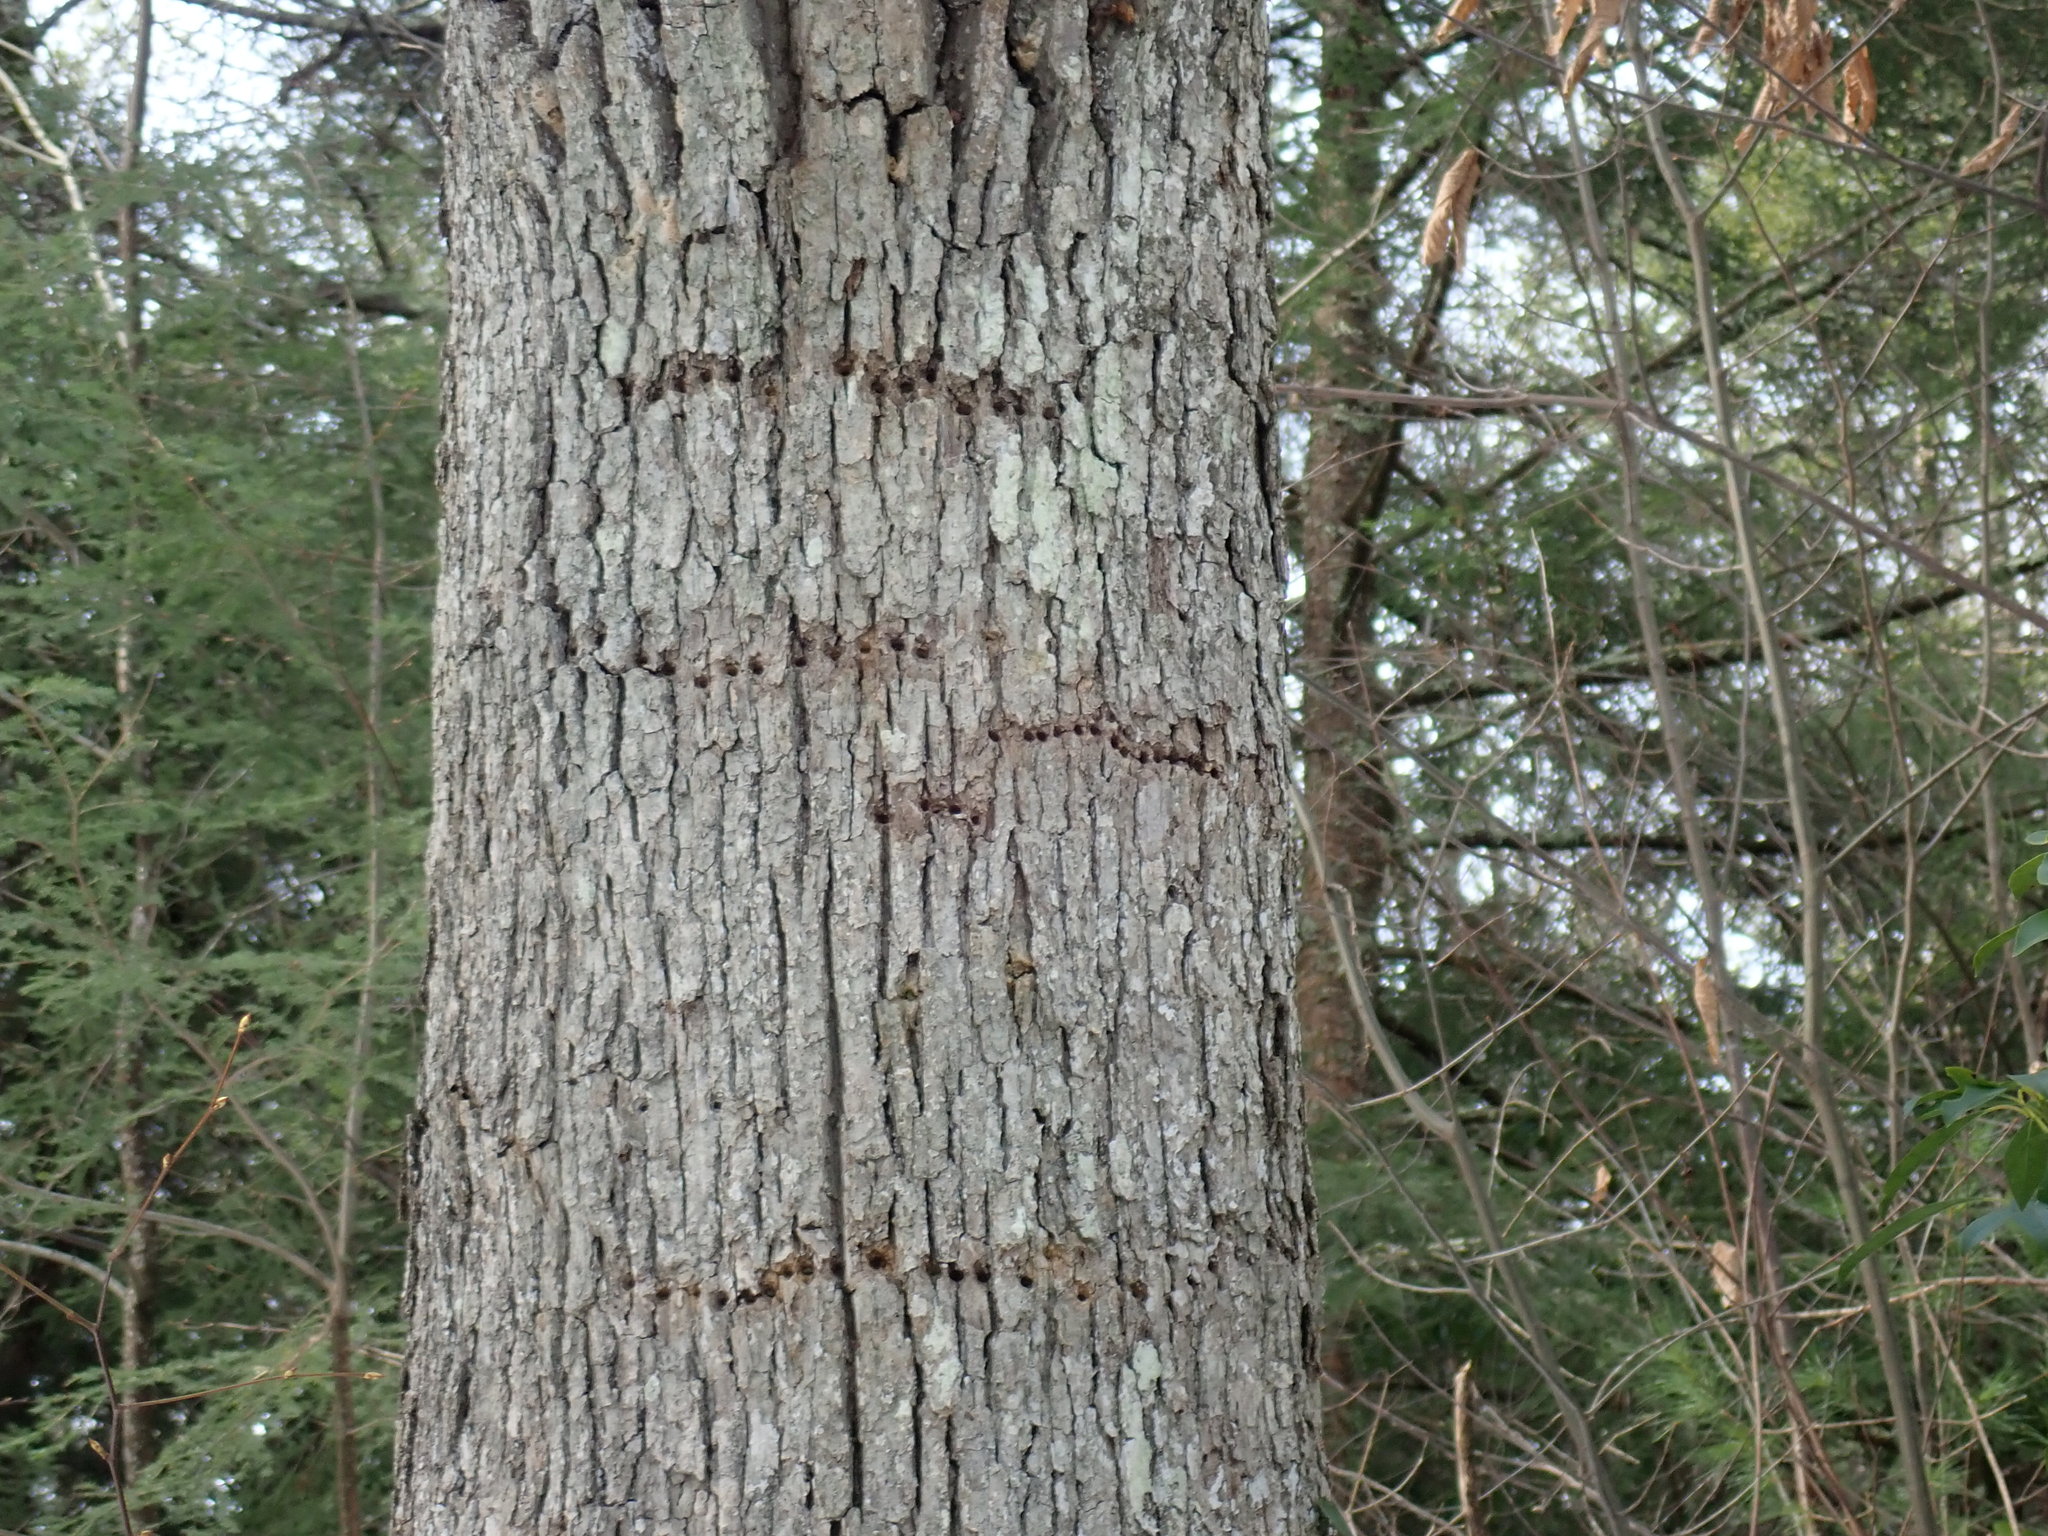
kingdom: Animalia
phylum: Chordata
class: Aves
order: Piciformes
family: Picidae
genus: Sphyrapicus
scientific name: Sphyrapicus varius
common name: Yellow-bellied sapsucker
